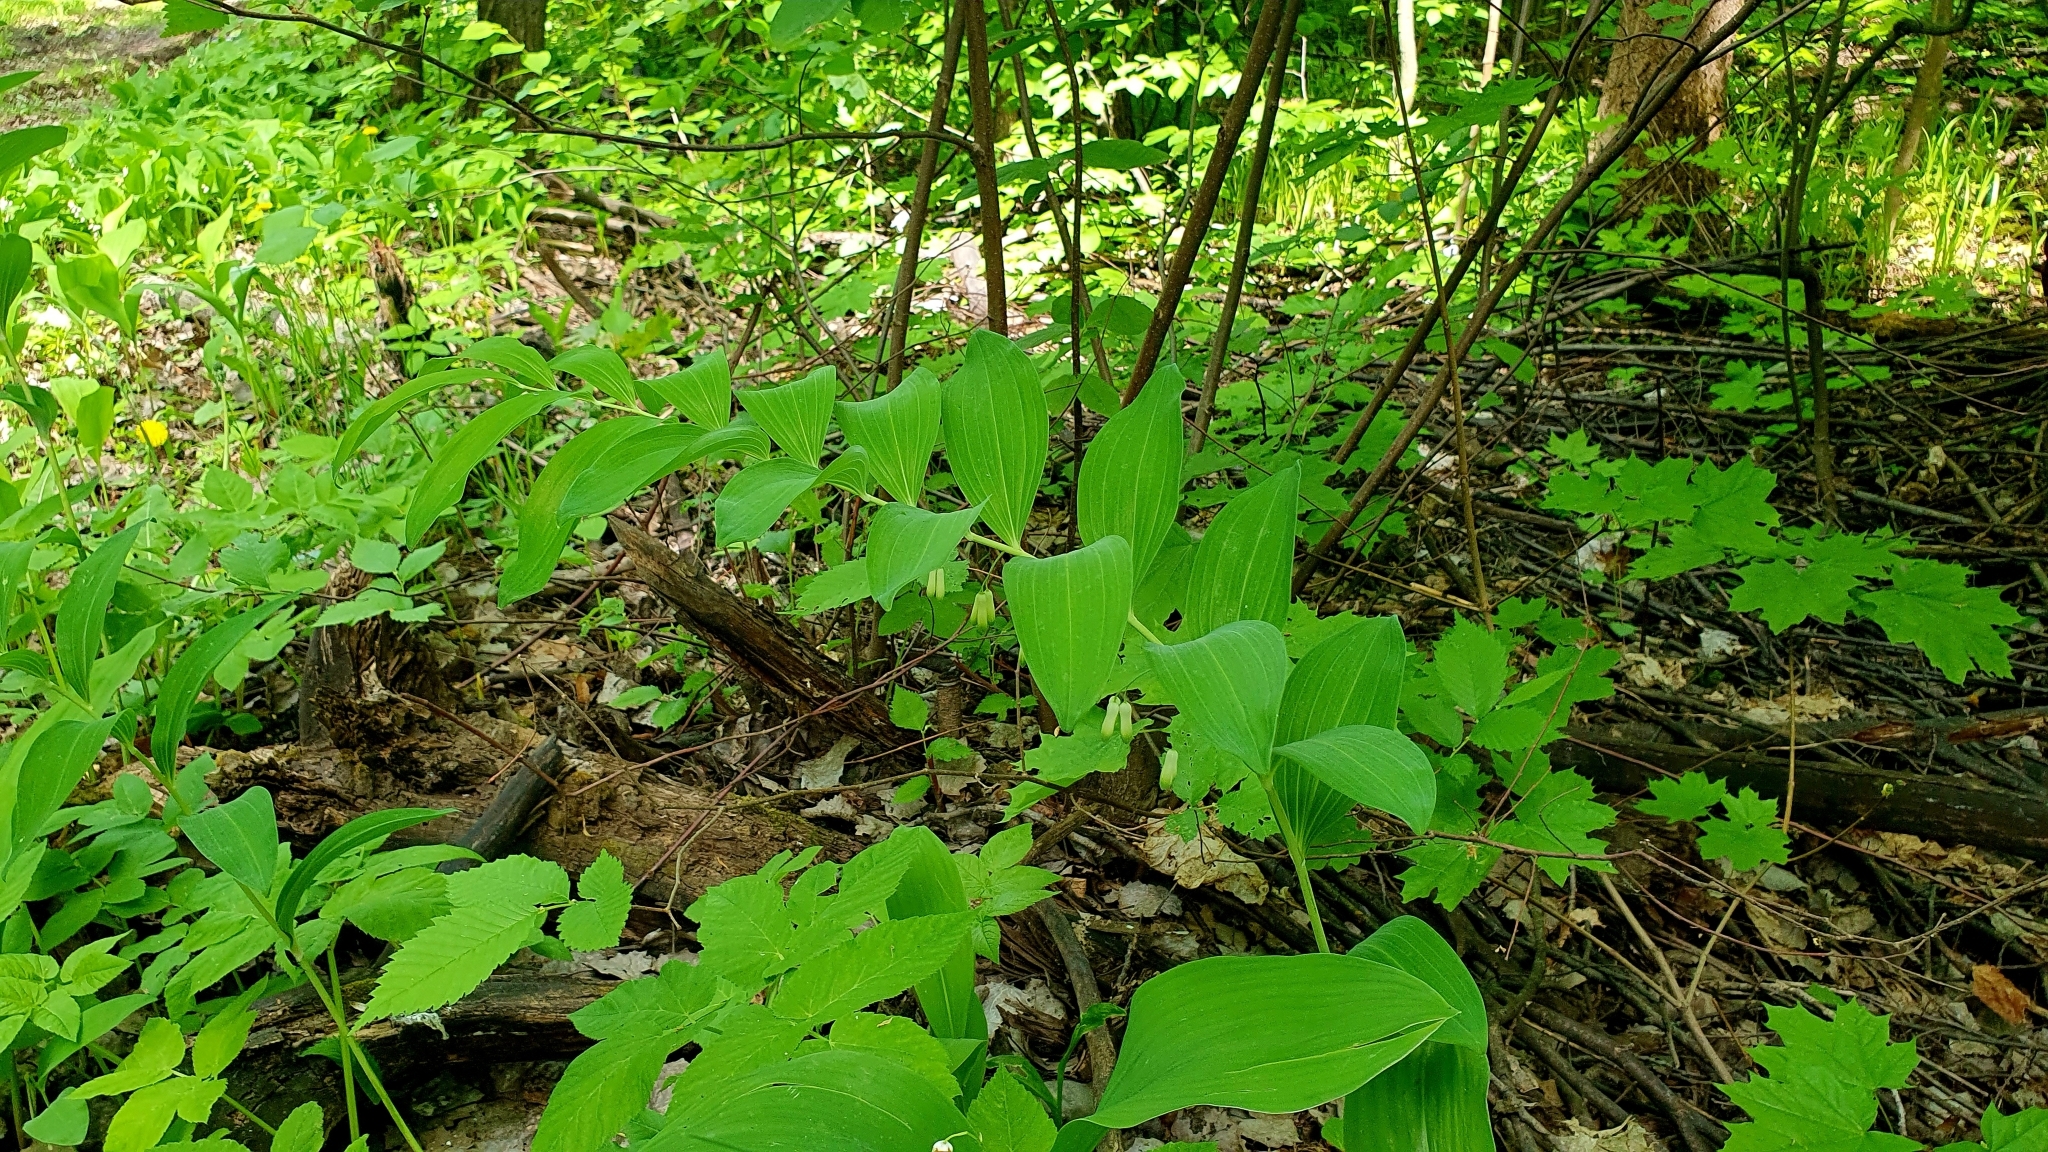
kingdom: Plantae
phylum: Tracheophyta
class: Liliopsida
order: Asparagales
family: Asparagaceae
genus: Polygonatum
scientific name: Polygonatum multiflorum
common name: Solomon's-seal
